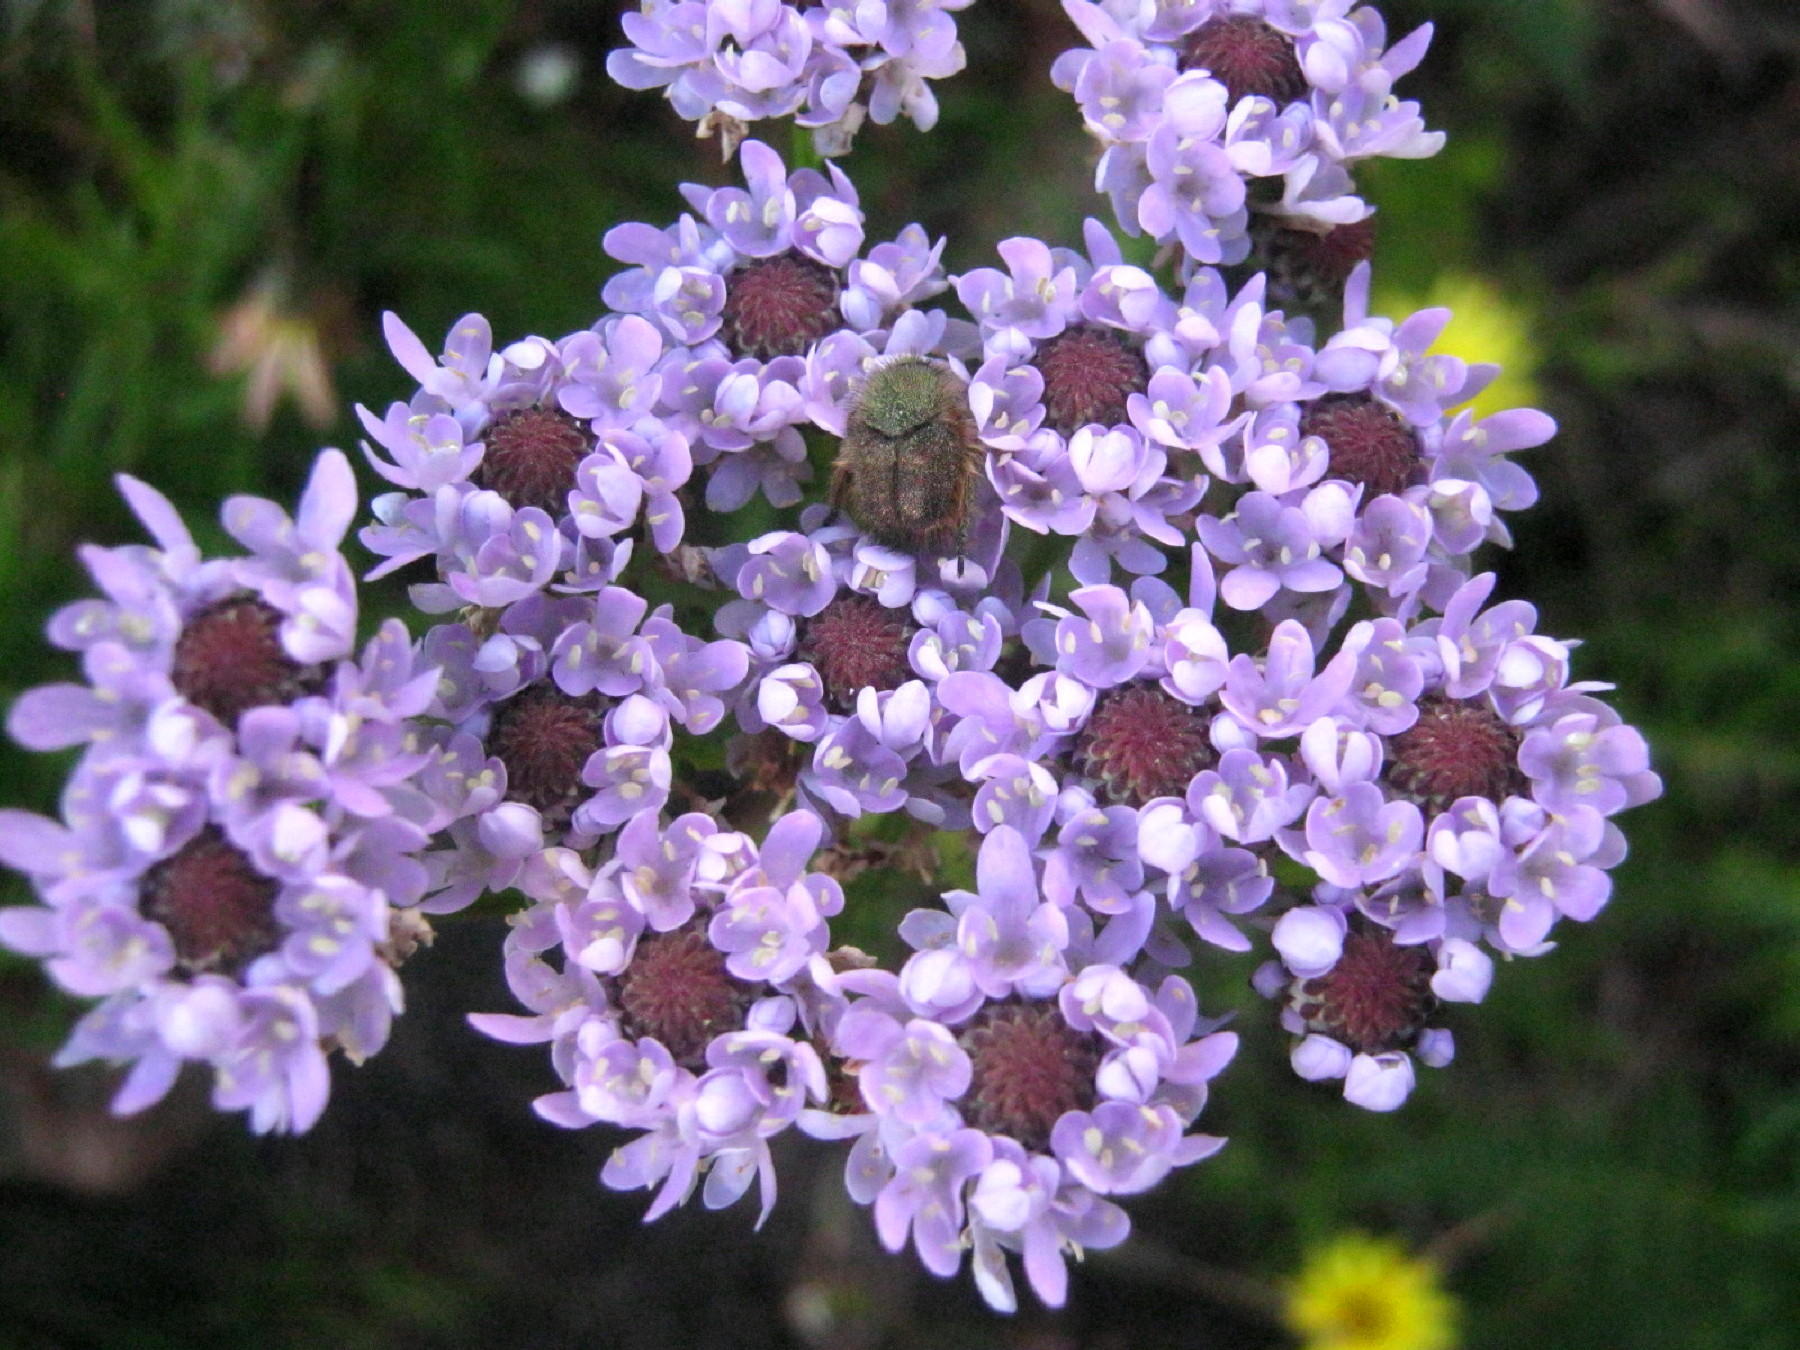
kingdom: Plantae
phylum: Tracheophyta
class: Magnoliopsida
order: Lamiales
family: Scrophulariaceae
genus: Pseudoselago
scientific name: Pseudoselago spuria
